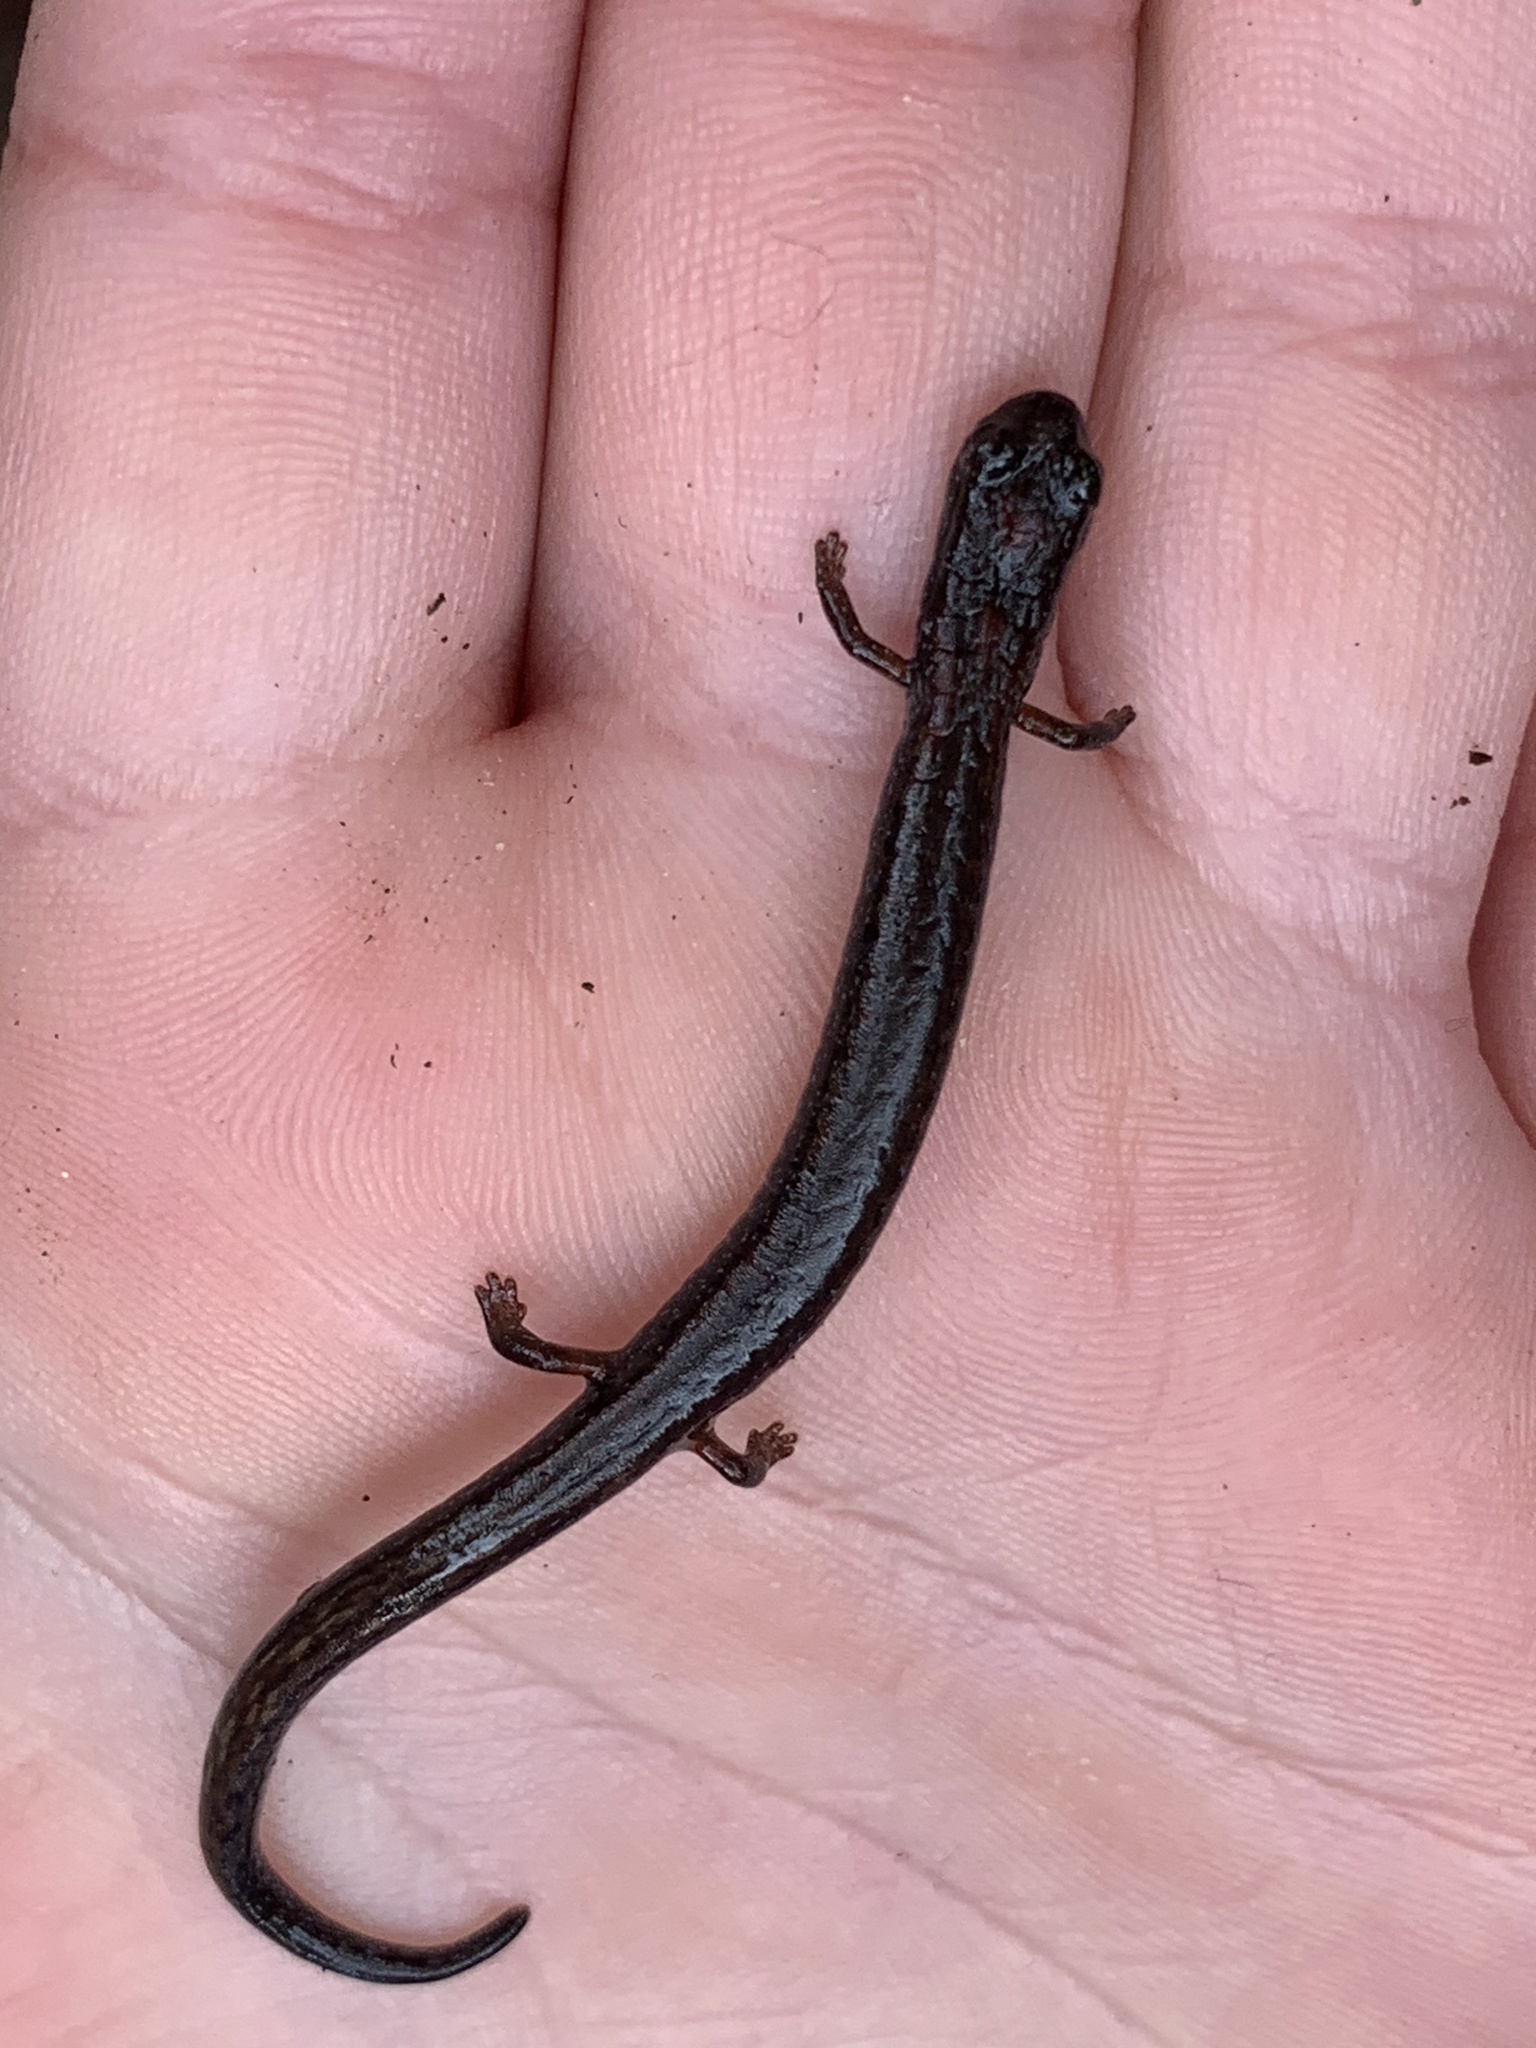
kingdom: Animalia
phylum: Chordata
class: Amphibia
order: Caudata
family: Plethodontidae
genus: Batrachoseps
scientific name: Batrachoseps attenuatus
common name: California slender salamander
